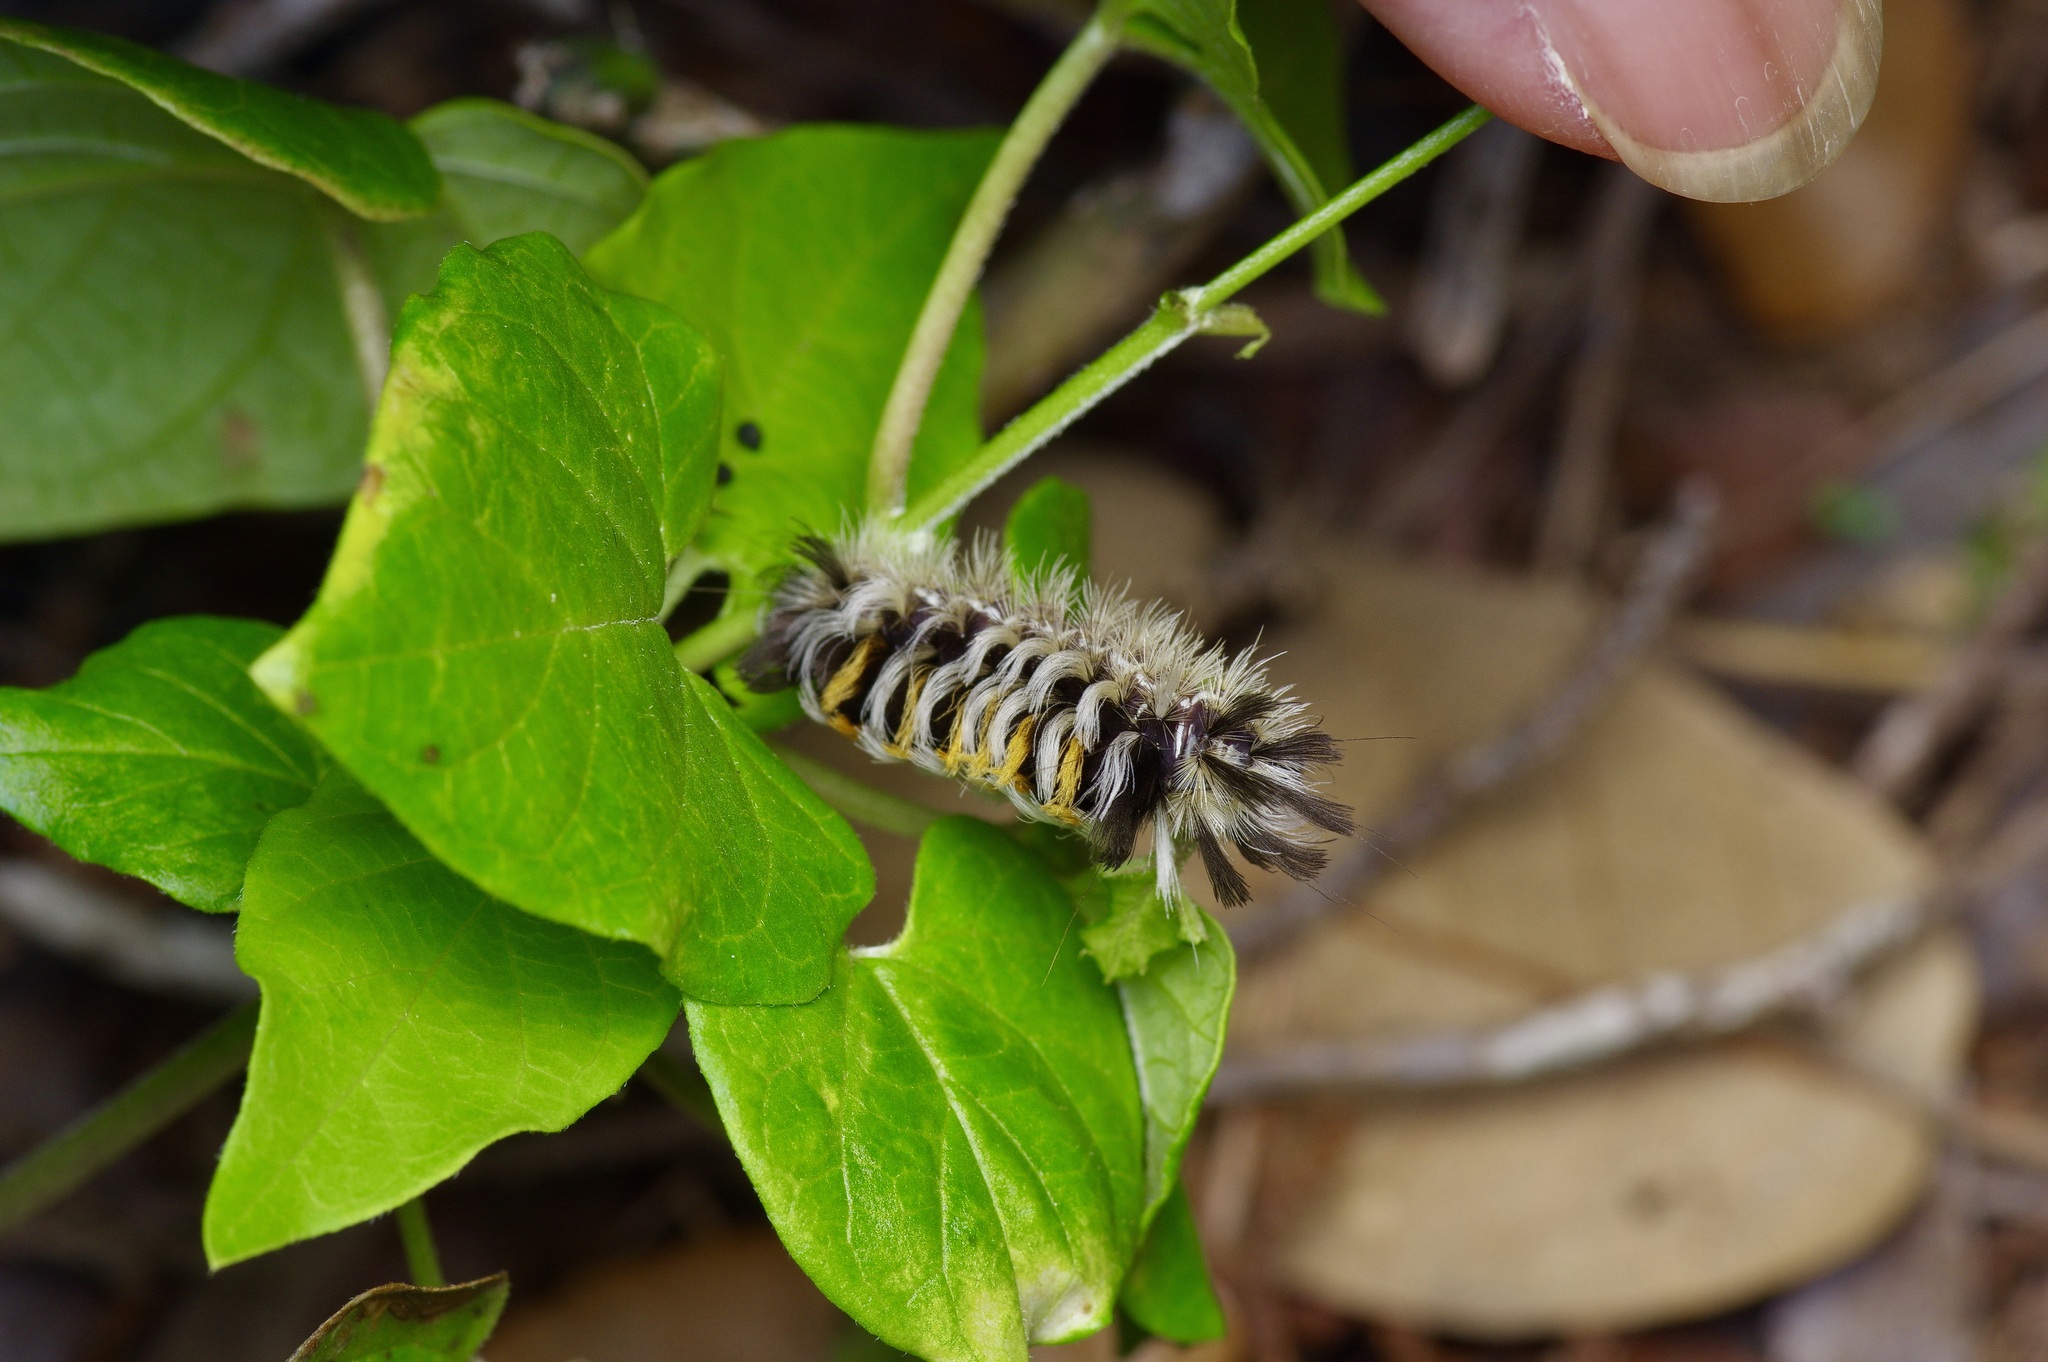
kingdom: Animalia
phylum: Arthropoda
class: Insecta
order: Lepidoptera
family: Erebidae
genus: Euchaetes
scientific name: Euchaetes bolteri
